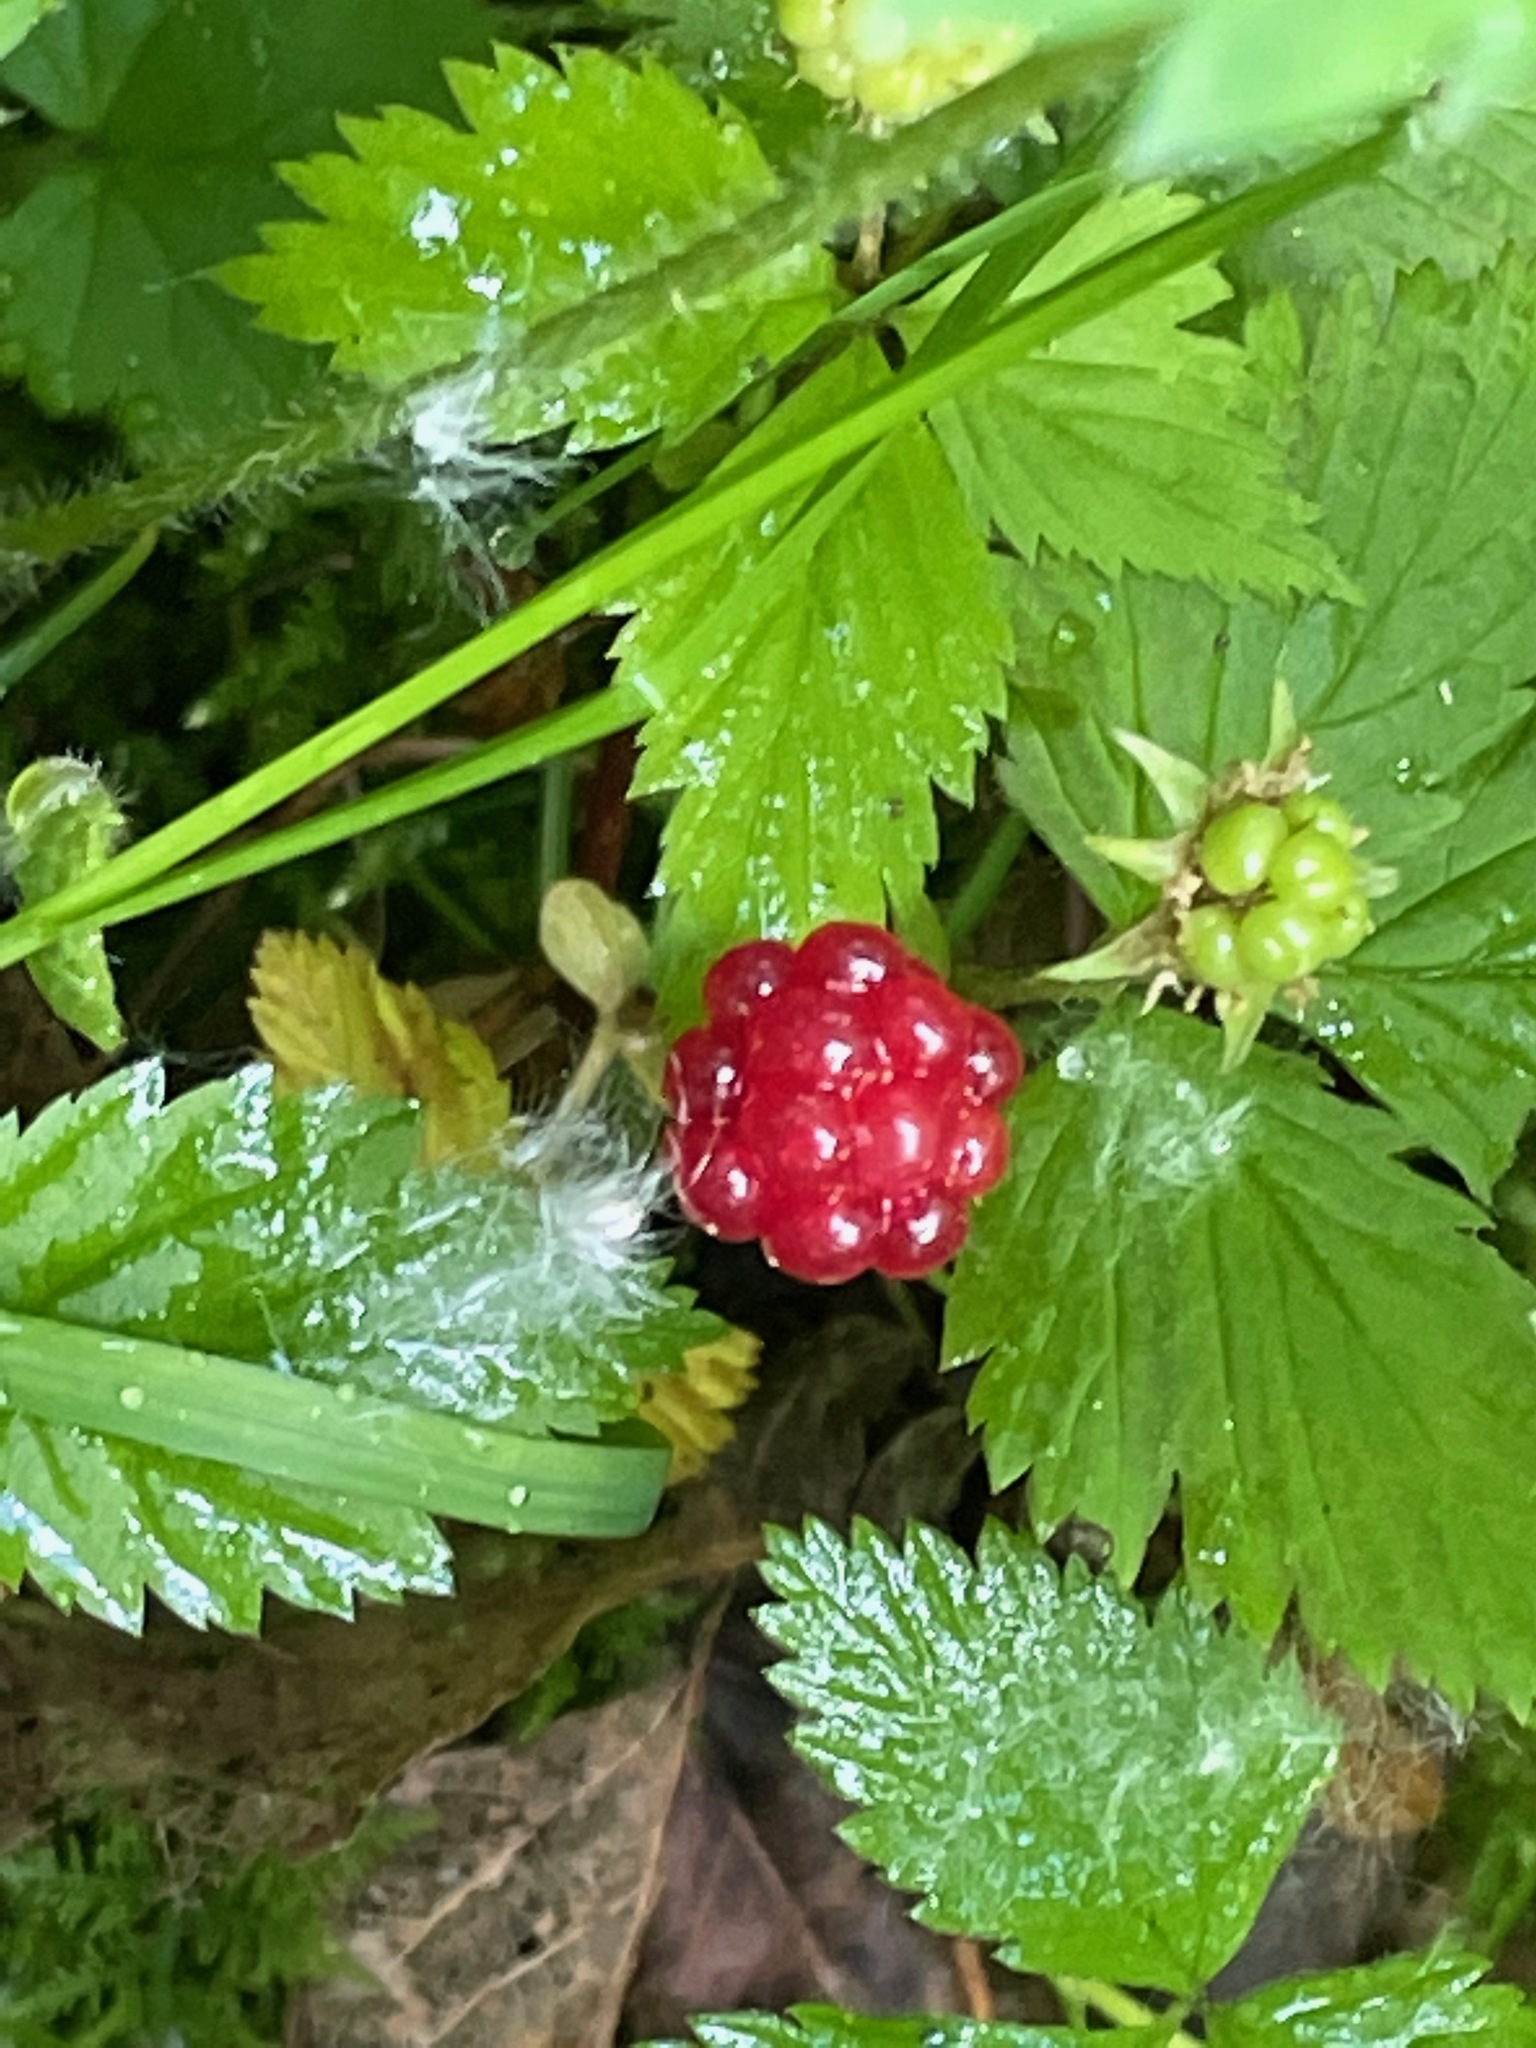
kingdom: Plantae
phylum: Tracheophyta
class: Magnoliopsida
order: Rosales
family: Rosaceae
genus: Rubus
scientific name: Rubus pubescens
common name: Dwarf raspberry
